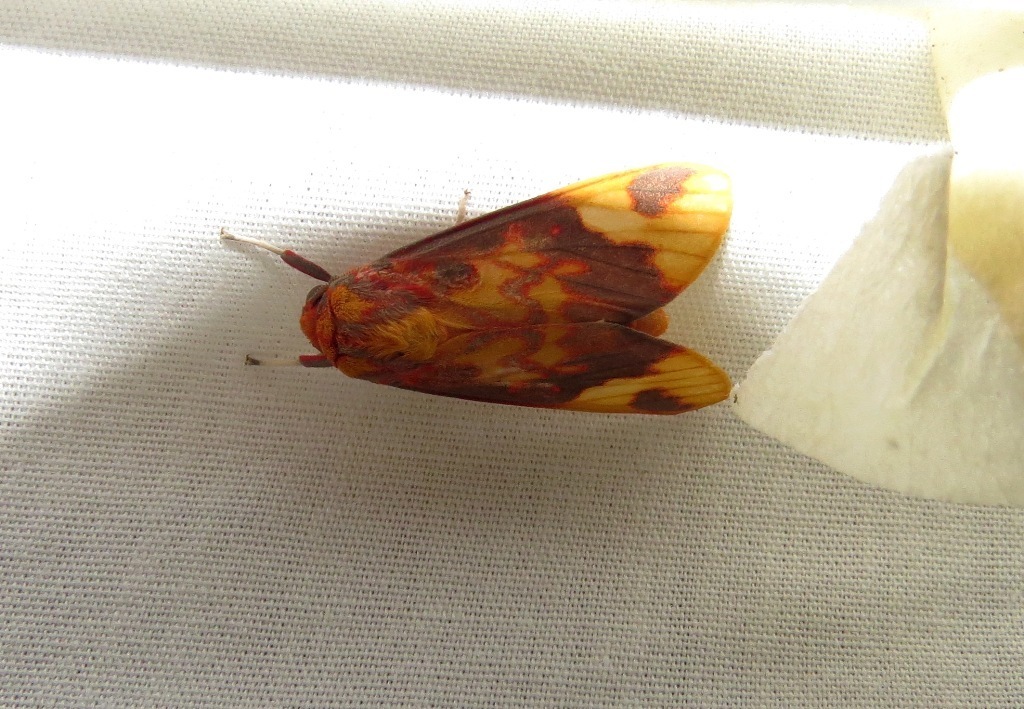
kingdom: Animalia
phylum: Arthropoda
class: Insecta
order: Lepidoptera
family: Erebidae
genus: Melese
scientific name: Melese laodamia
